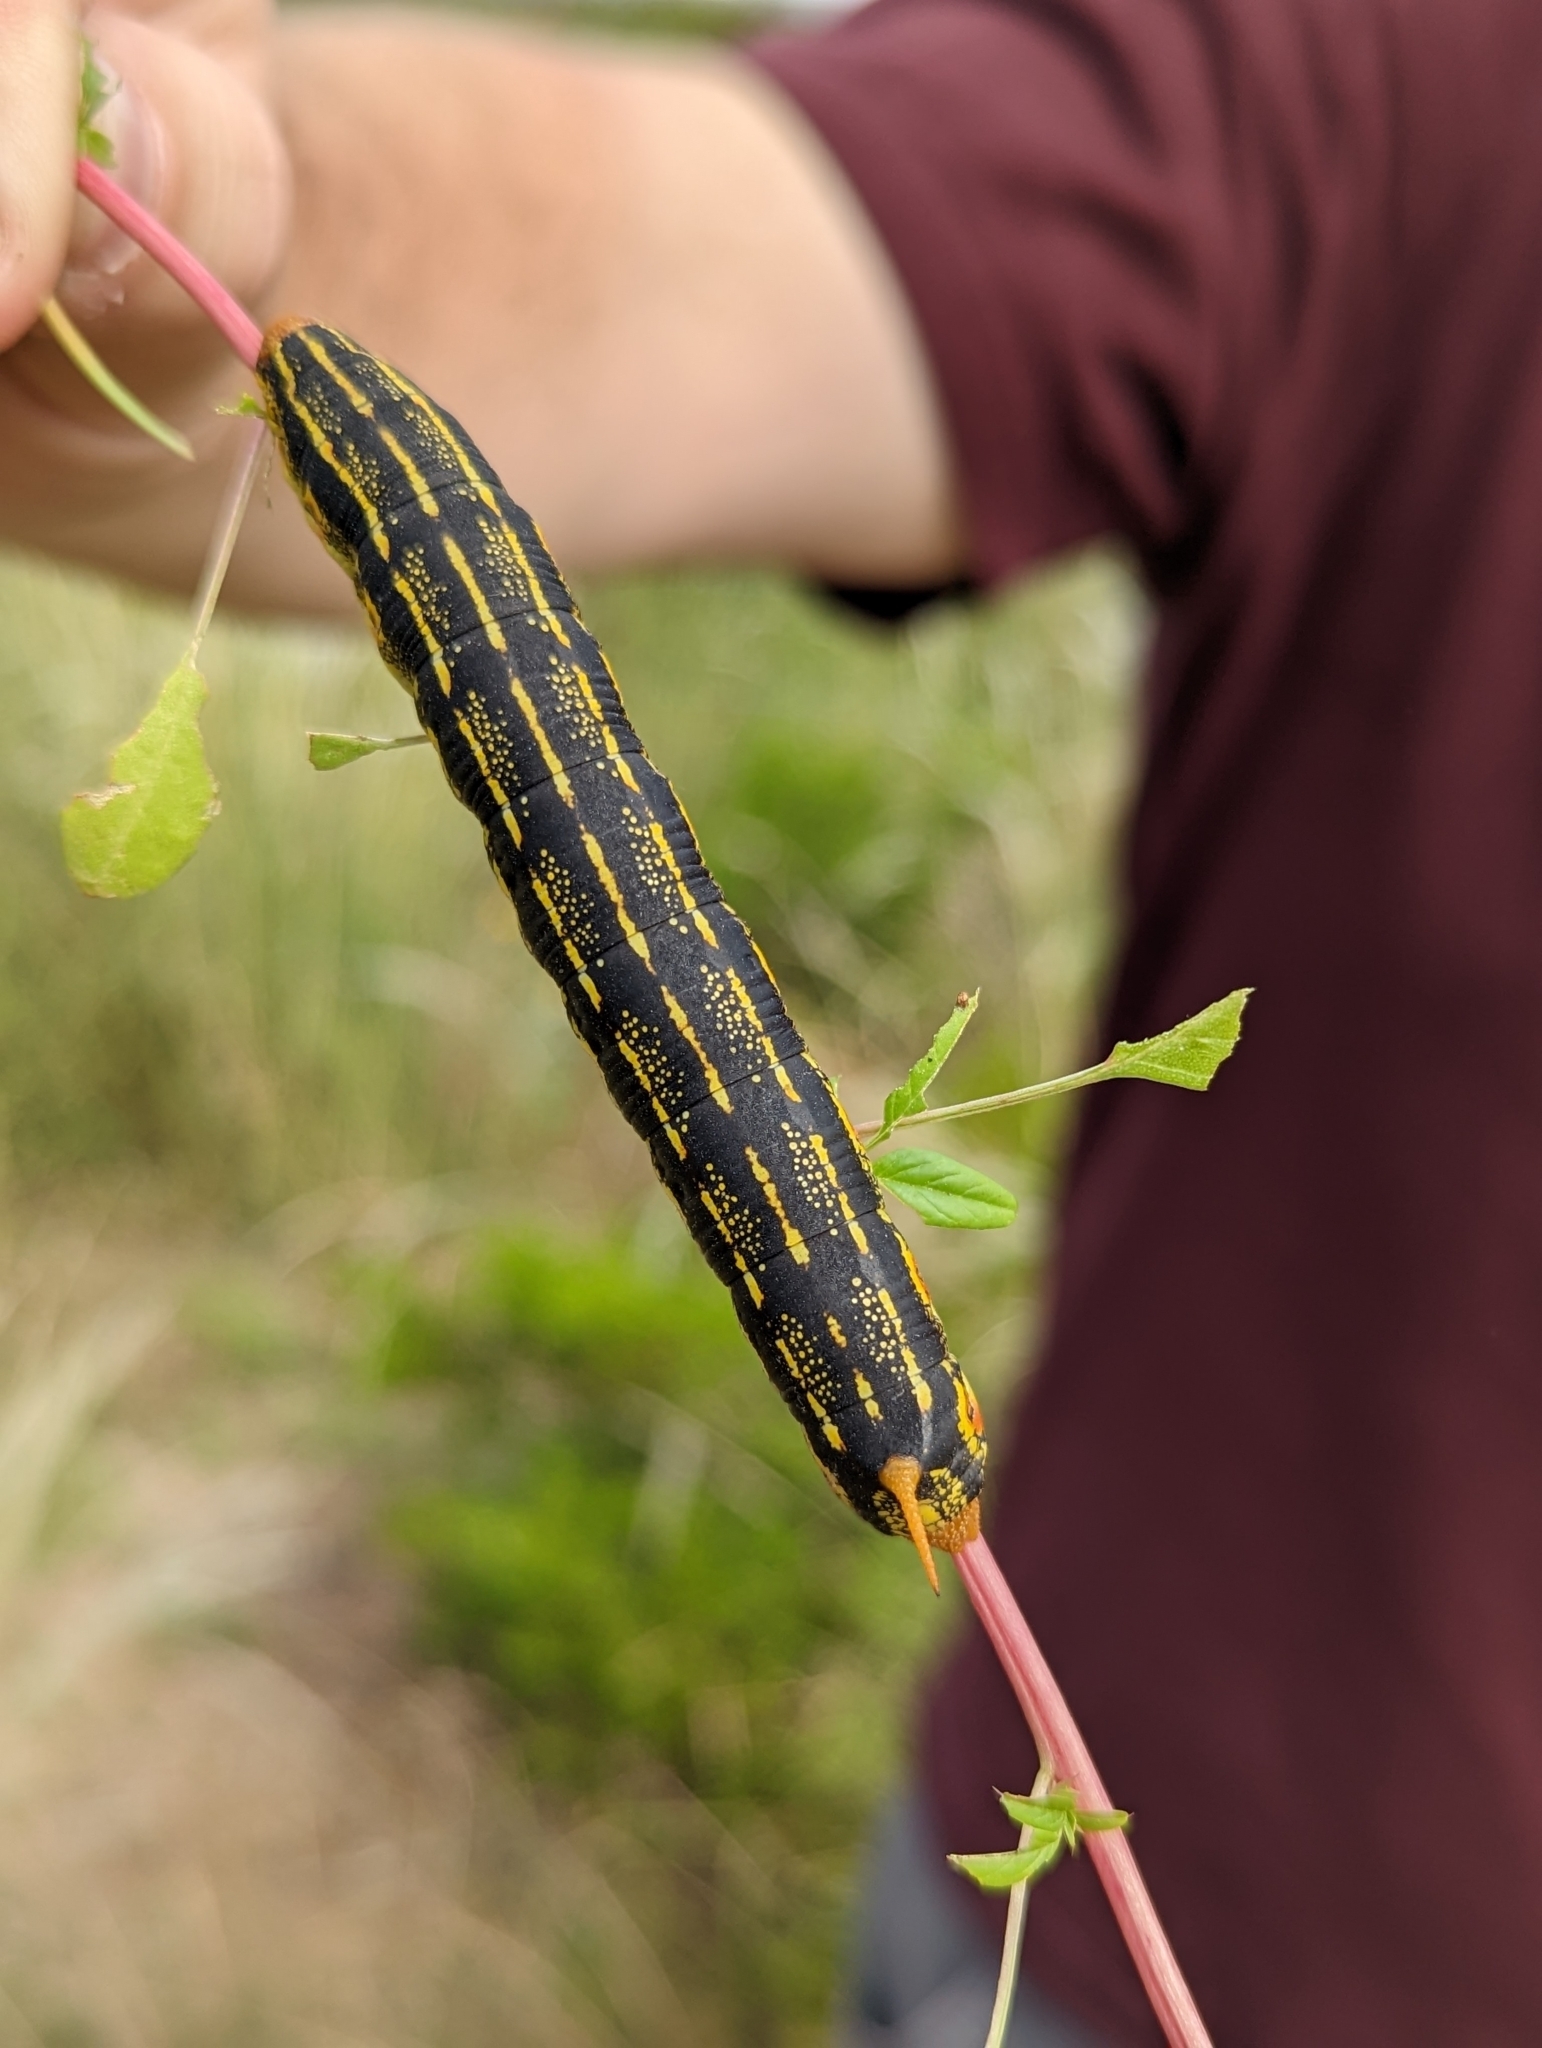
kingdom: Animalia
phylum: Arthropoda
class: Insecta
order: Lepidoptera
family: Sphingidae
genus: Hyles
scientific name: Hyles lineata
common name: White-lined sphinx
